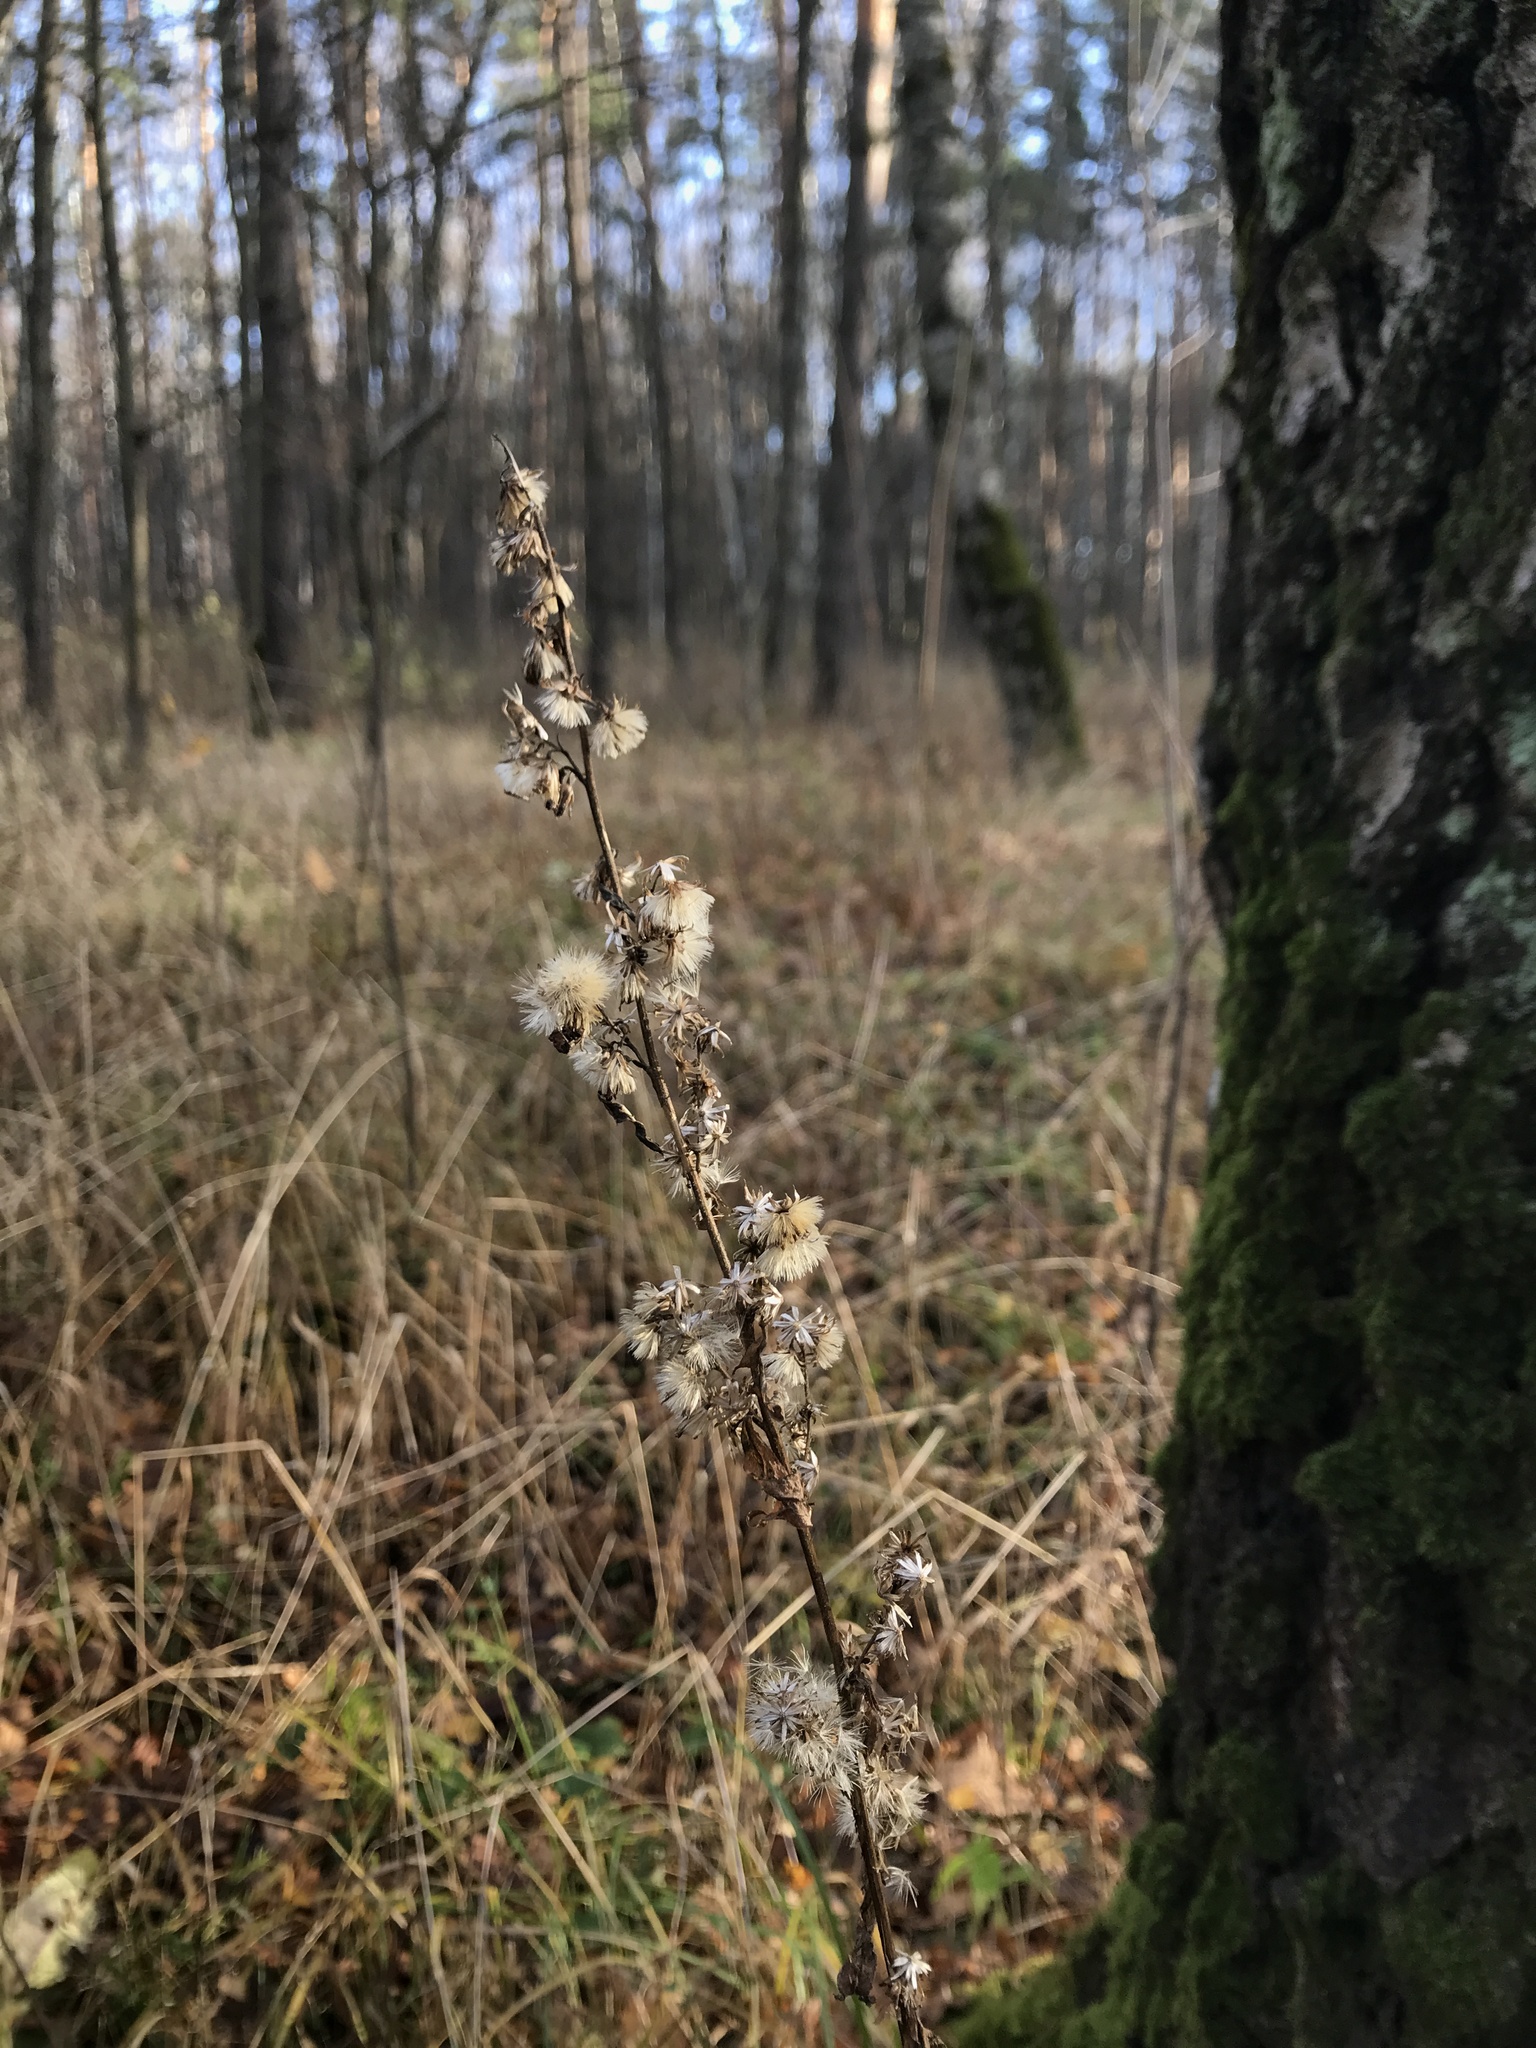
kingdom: Plantae
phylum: Tracheophyta
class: Magnoliopsida
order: Asterales
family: Asteraceae
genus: Solidago
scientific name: Solidago virgaurea
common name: Goldenrod
